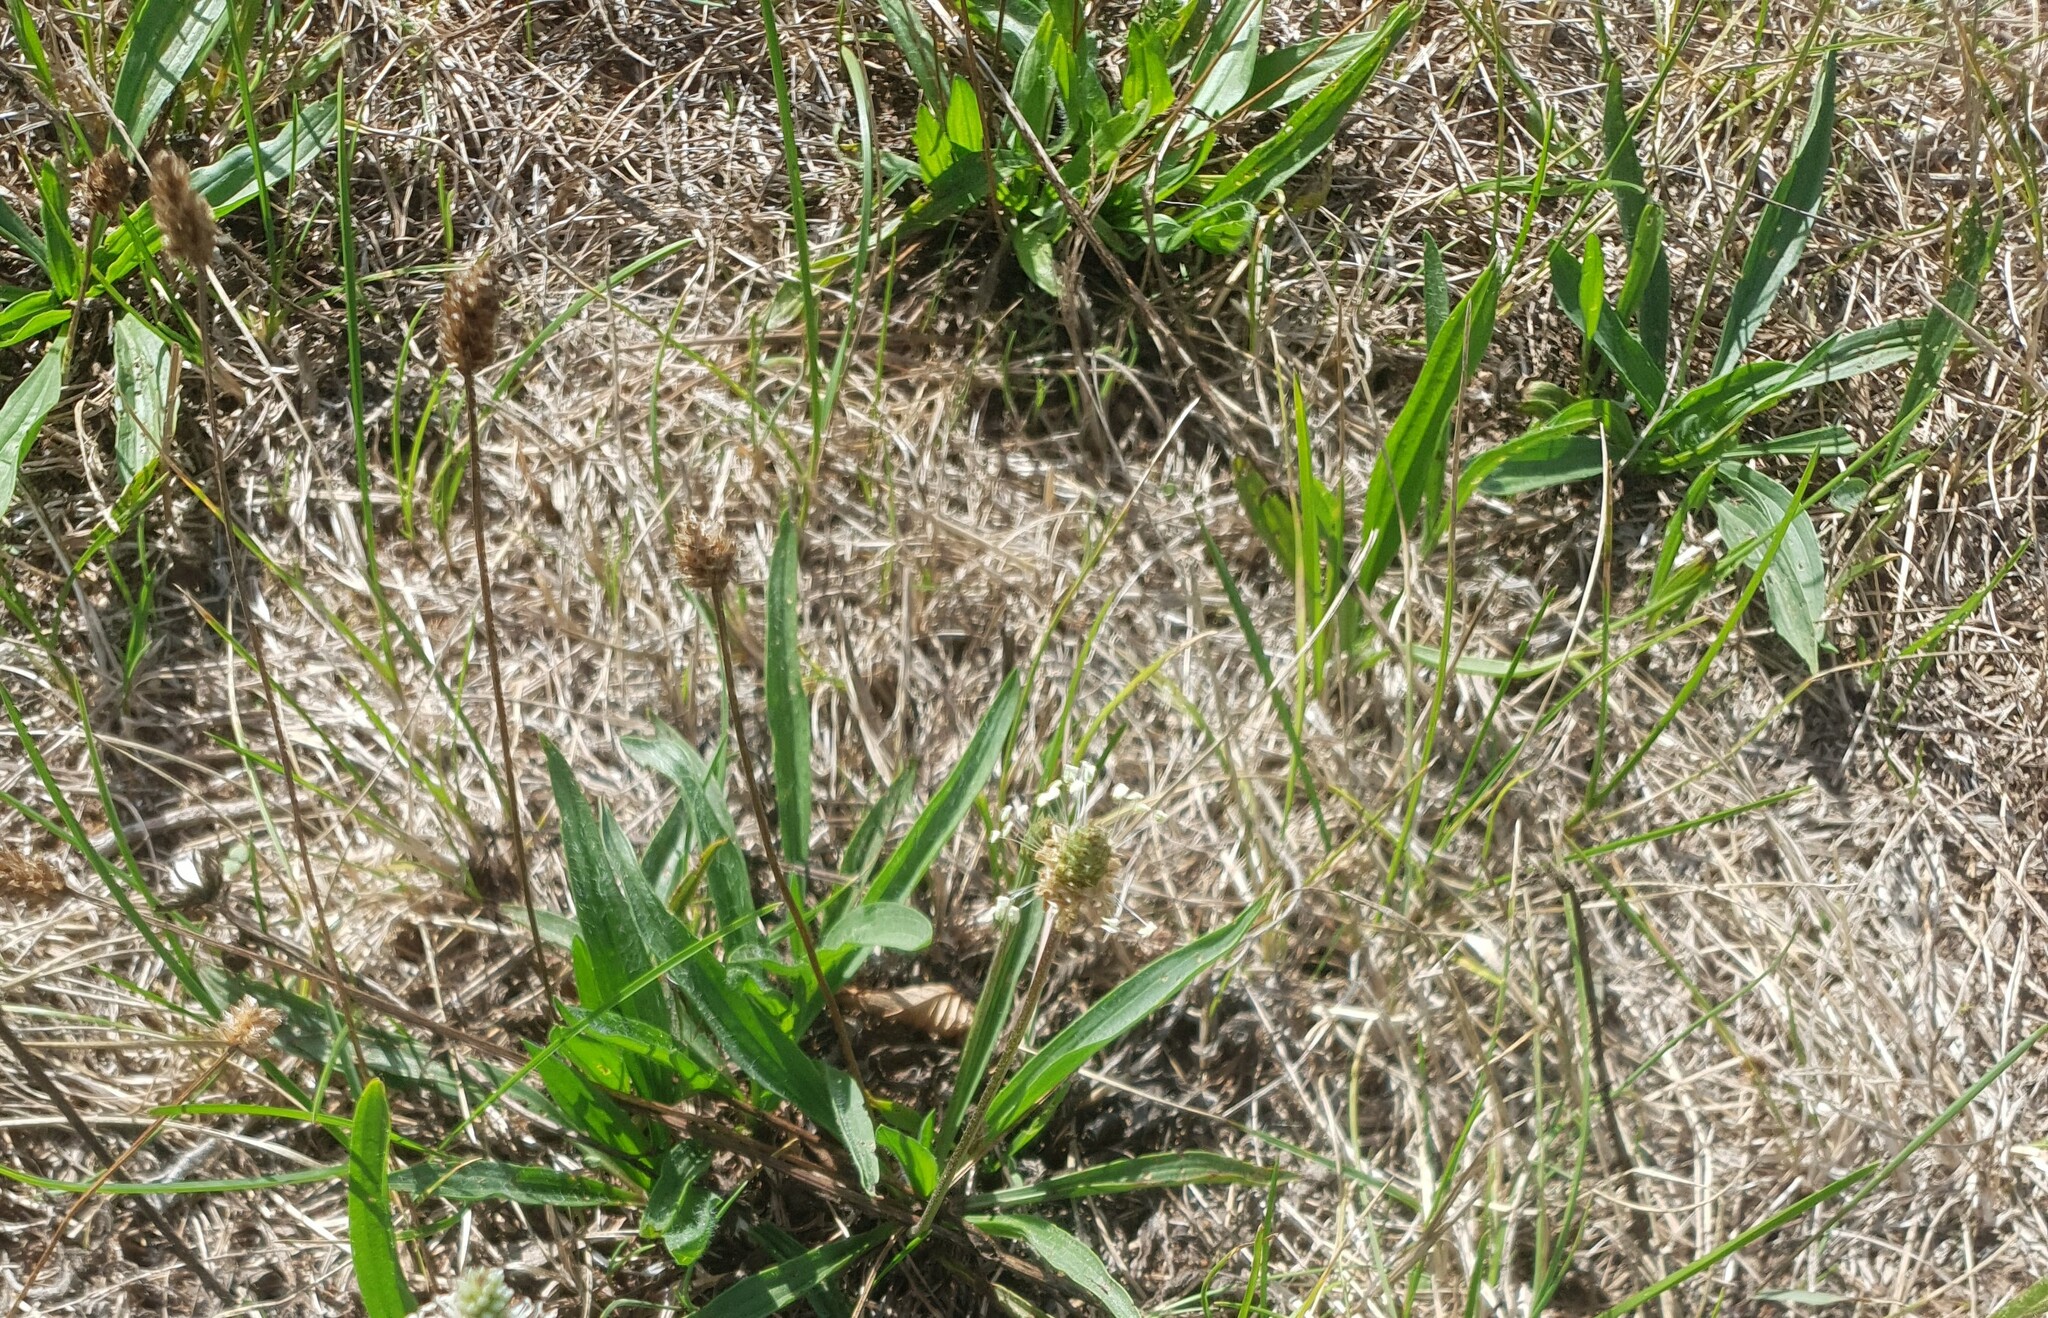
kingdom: Plantae
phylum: Tracheophyta
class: Magnoliopsida
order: Lamiales
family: Plantaginaceae
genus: Plantago
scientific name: Plantago lanceolata
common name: Ribwort plantain
